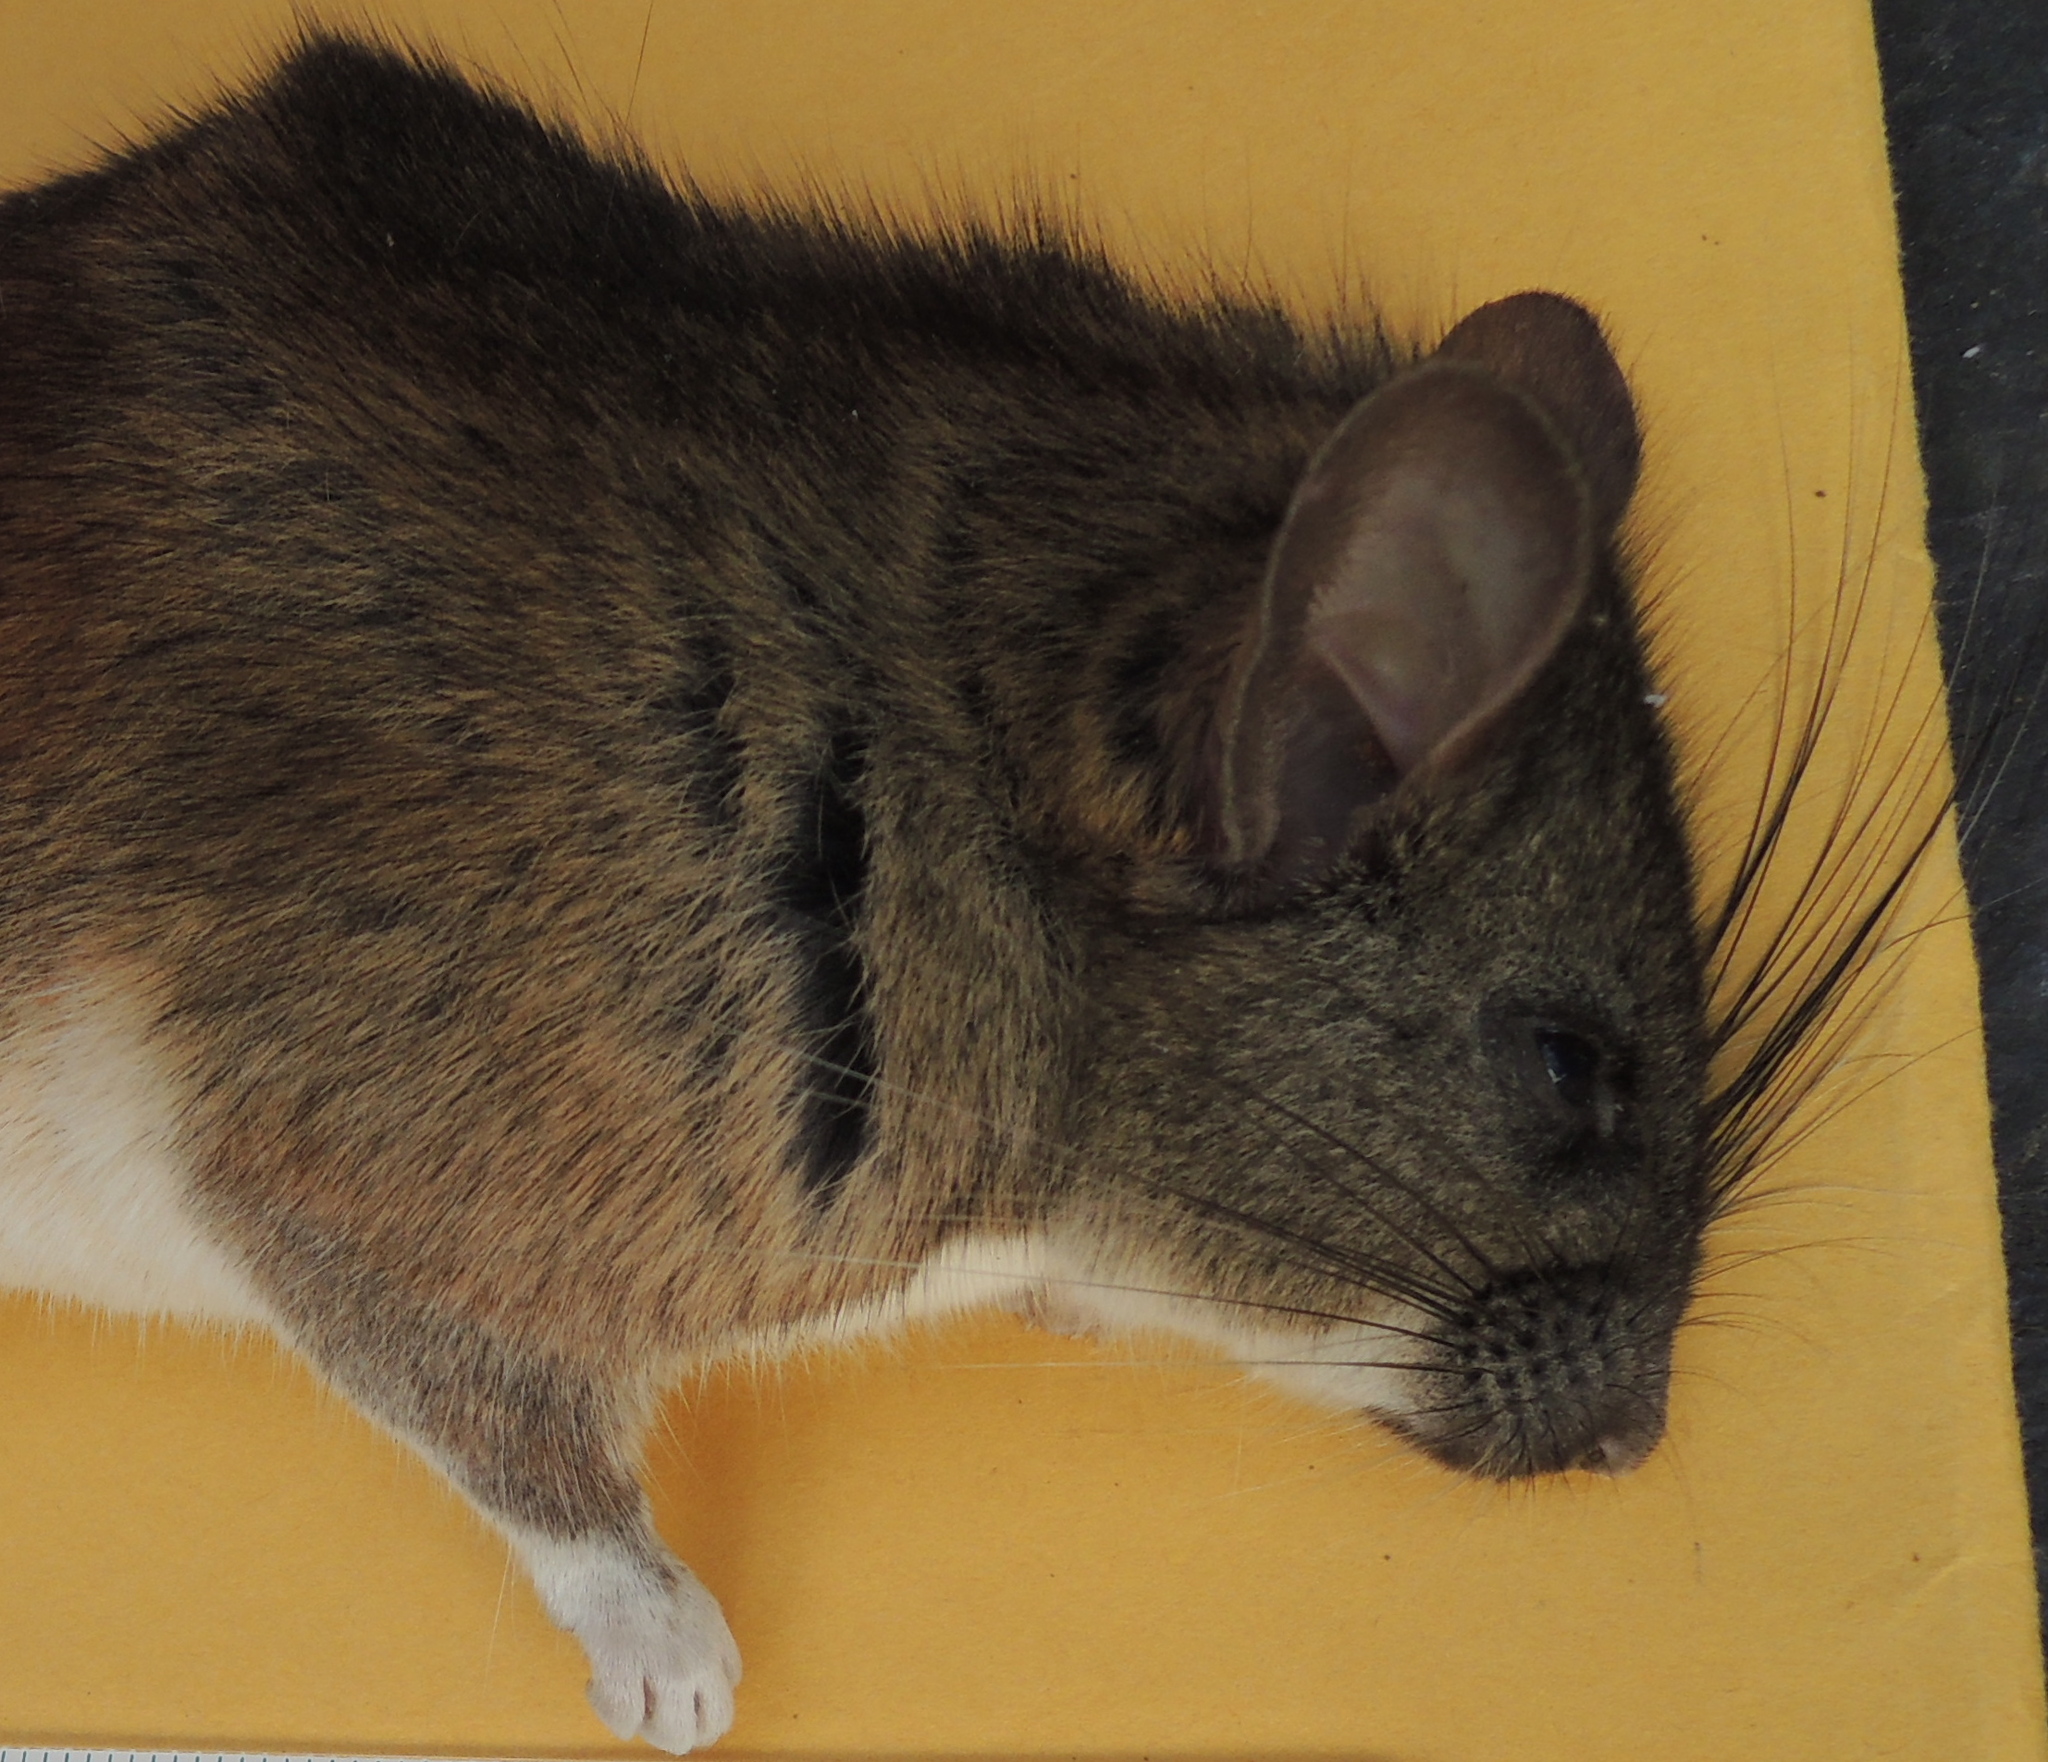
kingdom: Animalia
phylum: Chordata
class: Mammalia
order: Rodentia
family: Cricetidae
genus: Neotoma
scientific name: Neotoma fuscipes
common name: Dusky-footed woodrat
